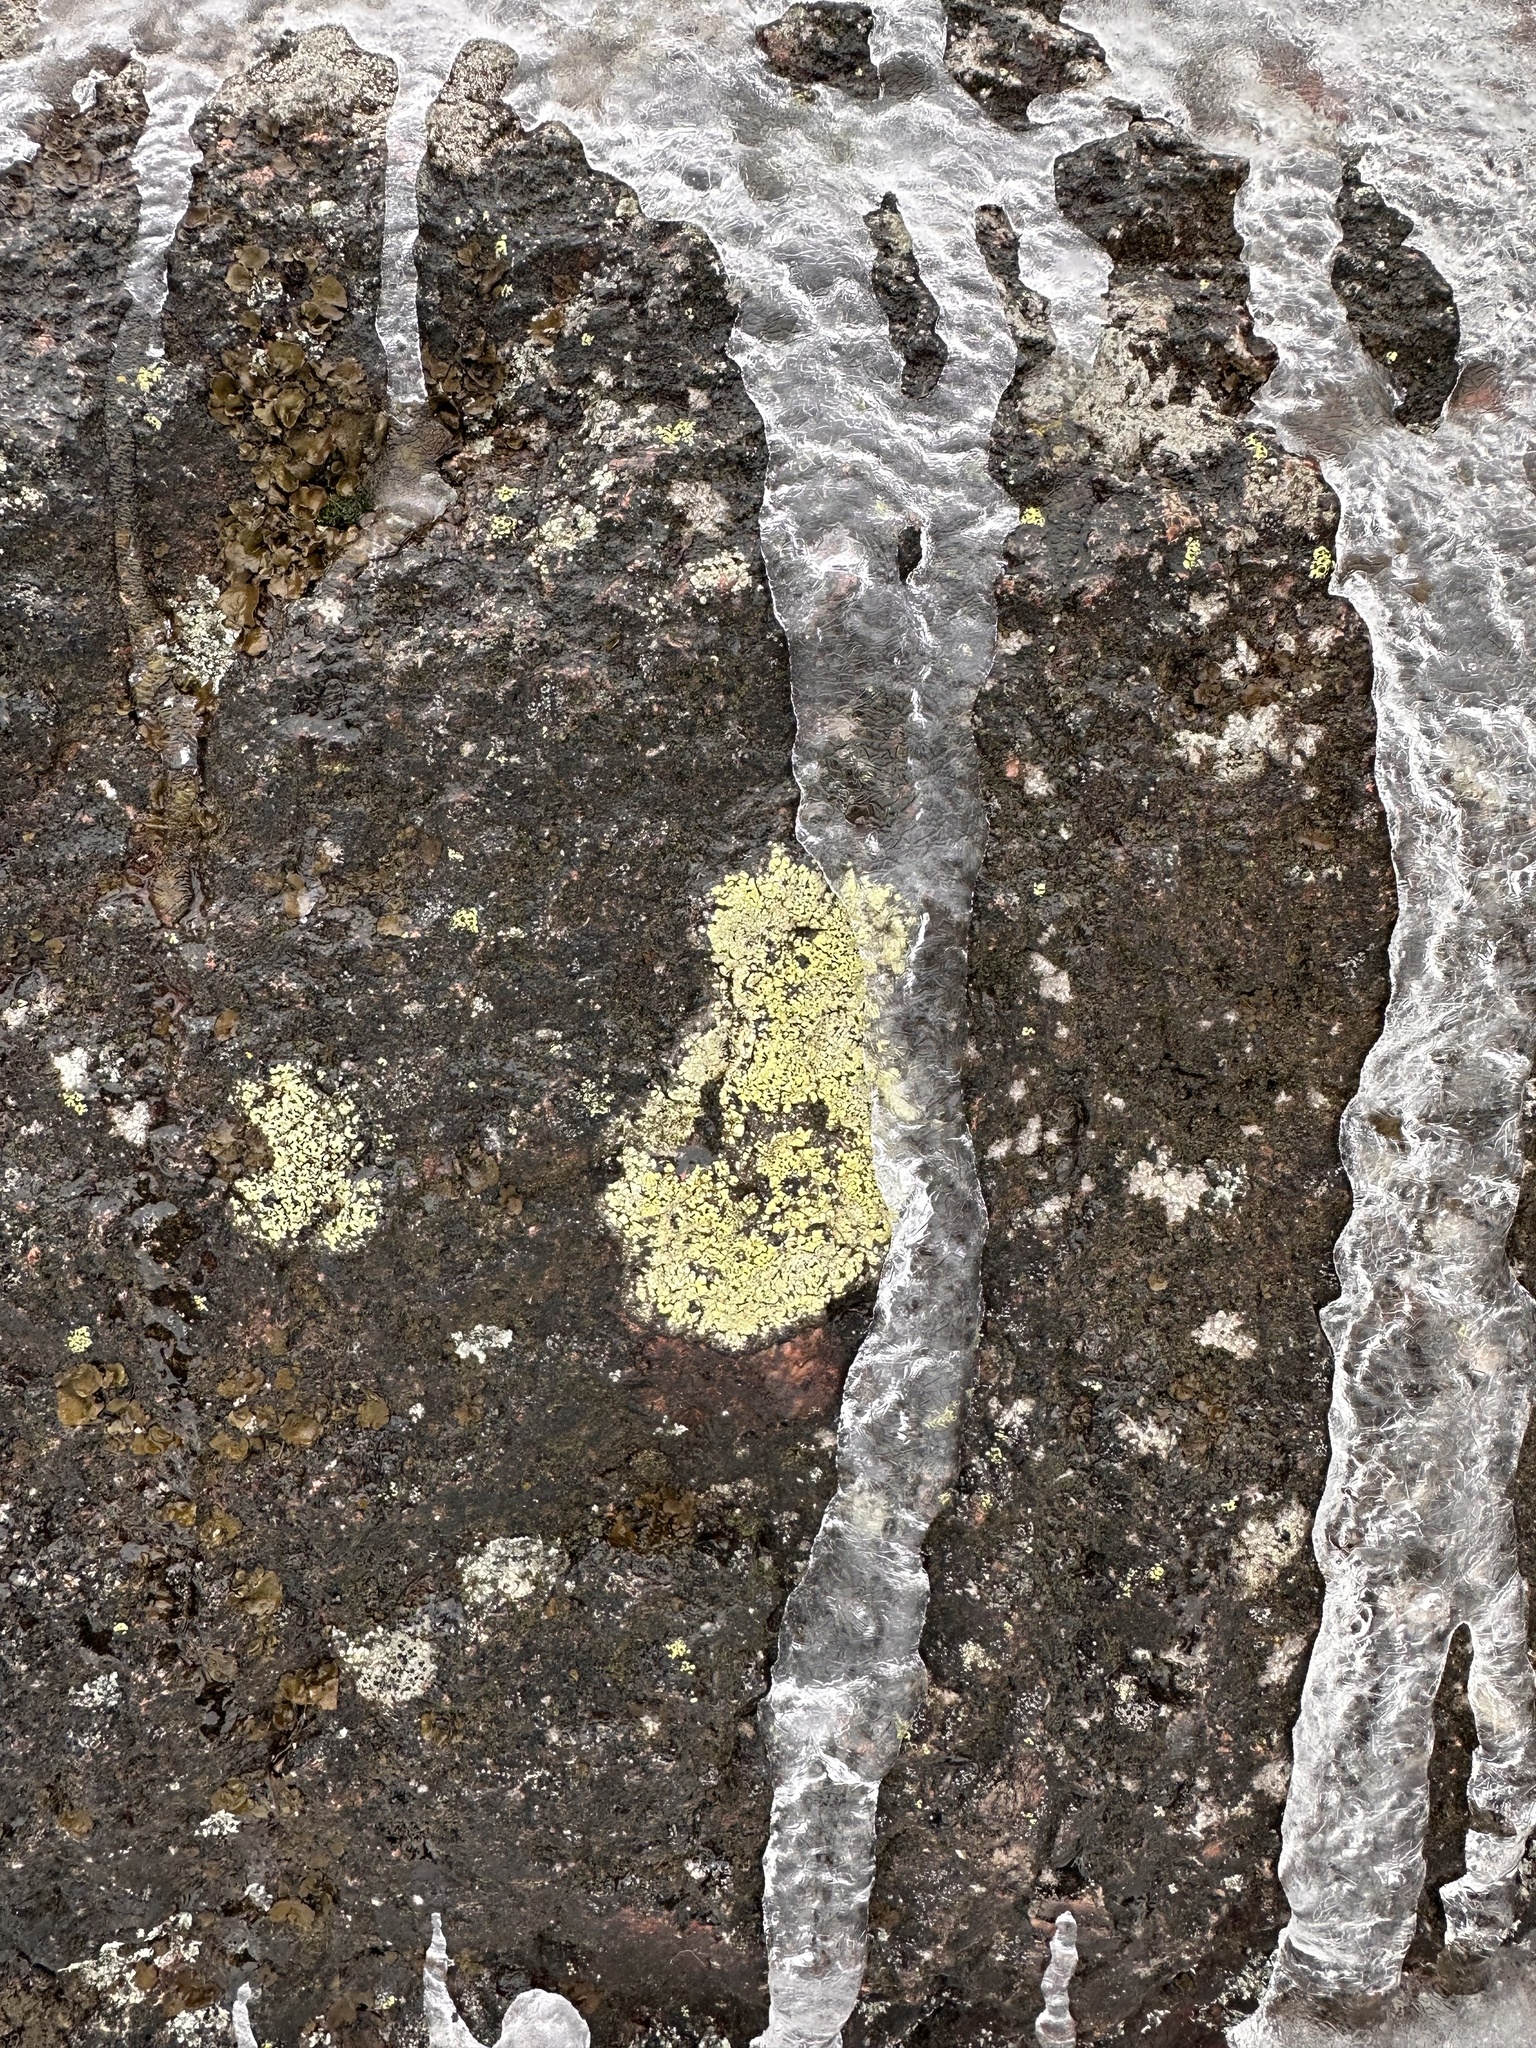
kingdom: Fungi
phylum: Ascomycota
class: Lecanoromycetes
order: Rhizocarpales
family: Rhizocarpaceae
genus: Rhizocarpon
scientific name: Rhizocarpon geographicum
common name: Yellow map lichen
